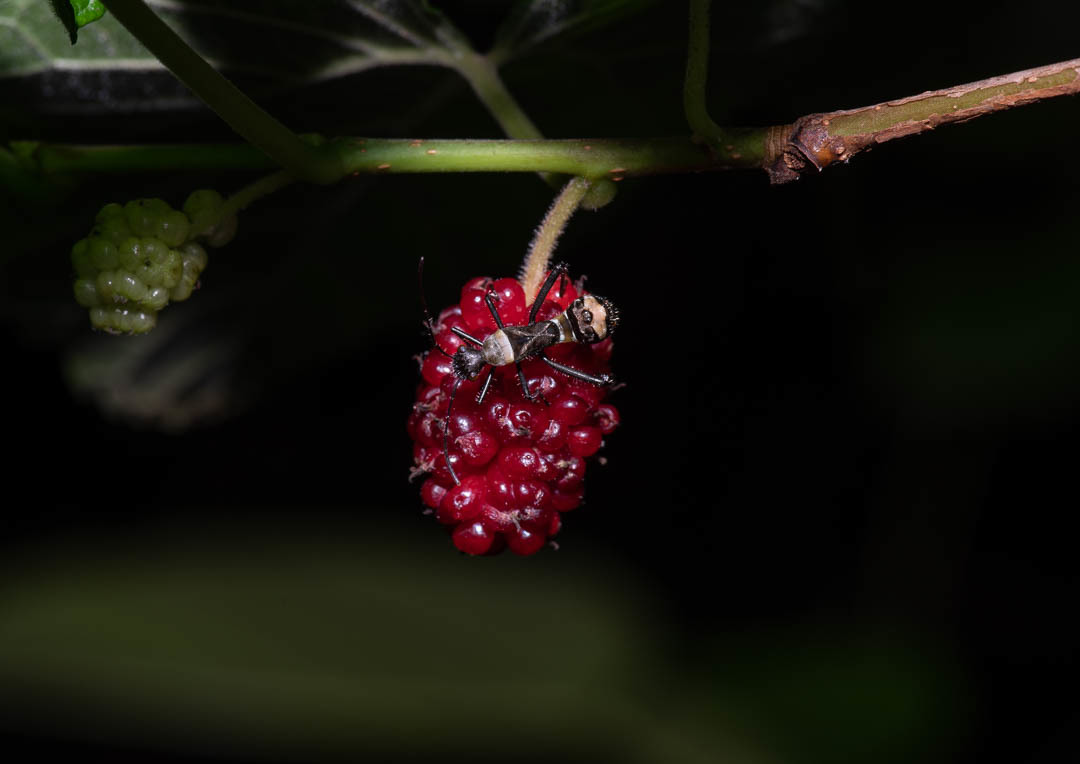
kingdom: Animalia
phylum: Arthropoda
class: Insecta
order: Hemiptera
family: Alydidae
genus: Hyalymenus
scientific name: Hyalymenus tarsatus
